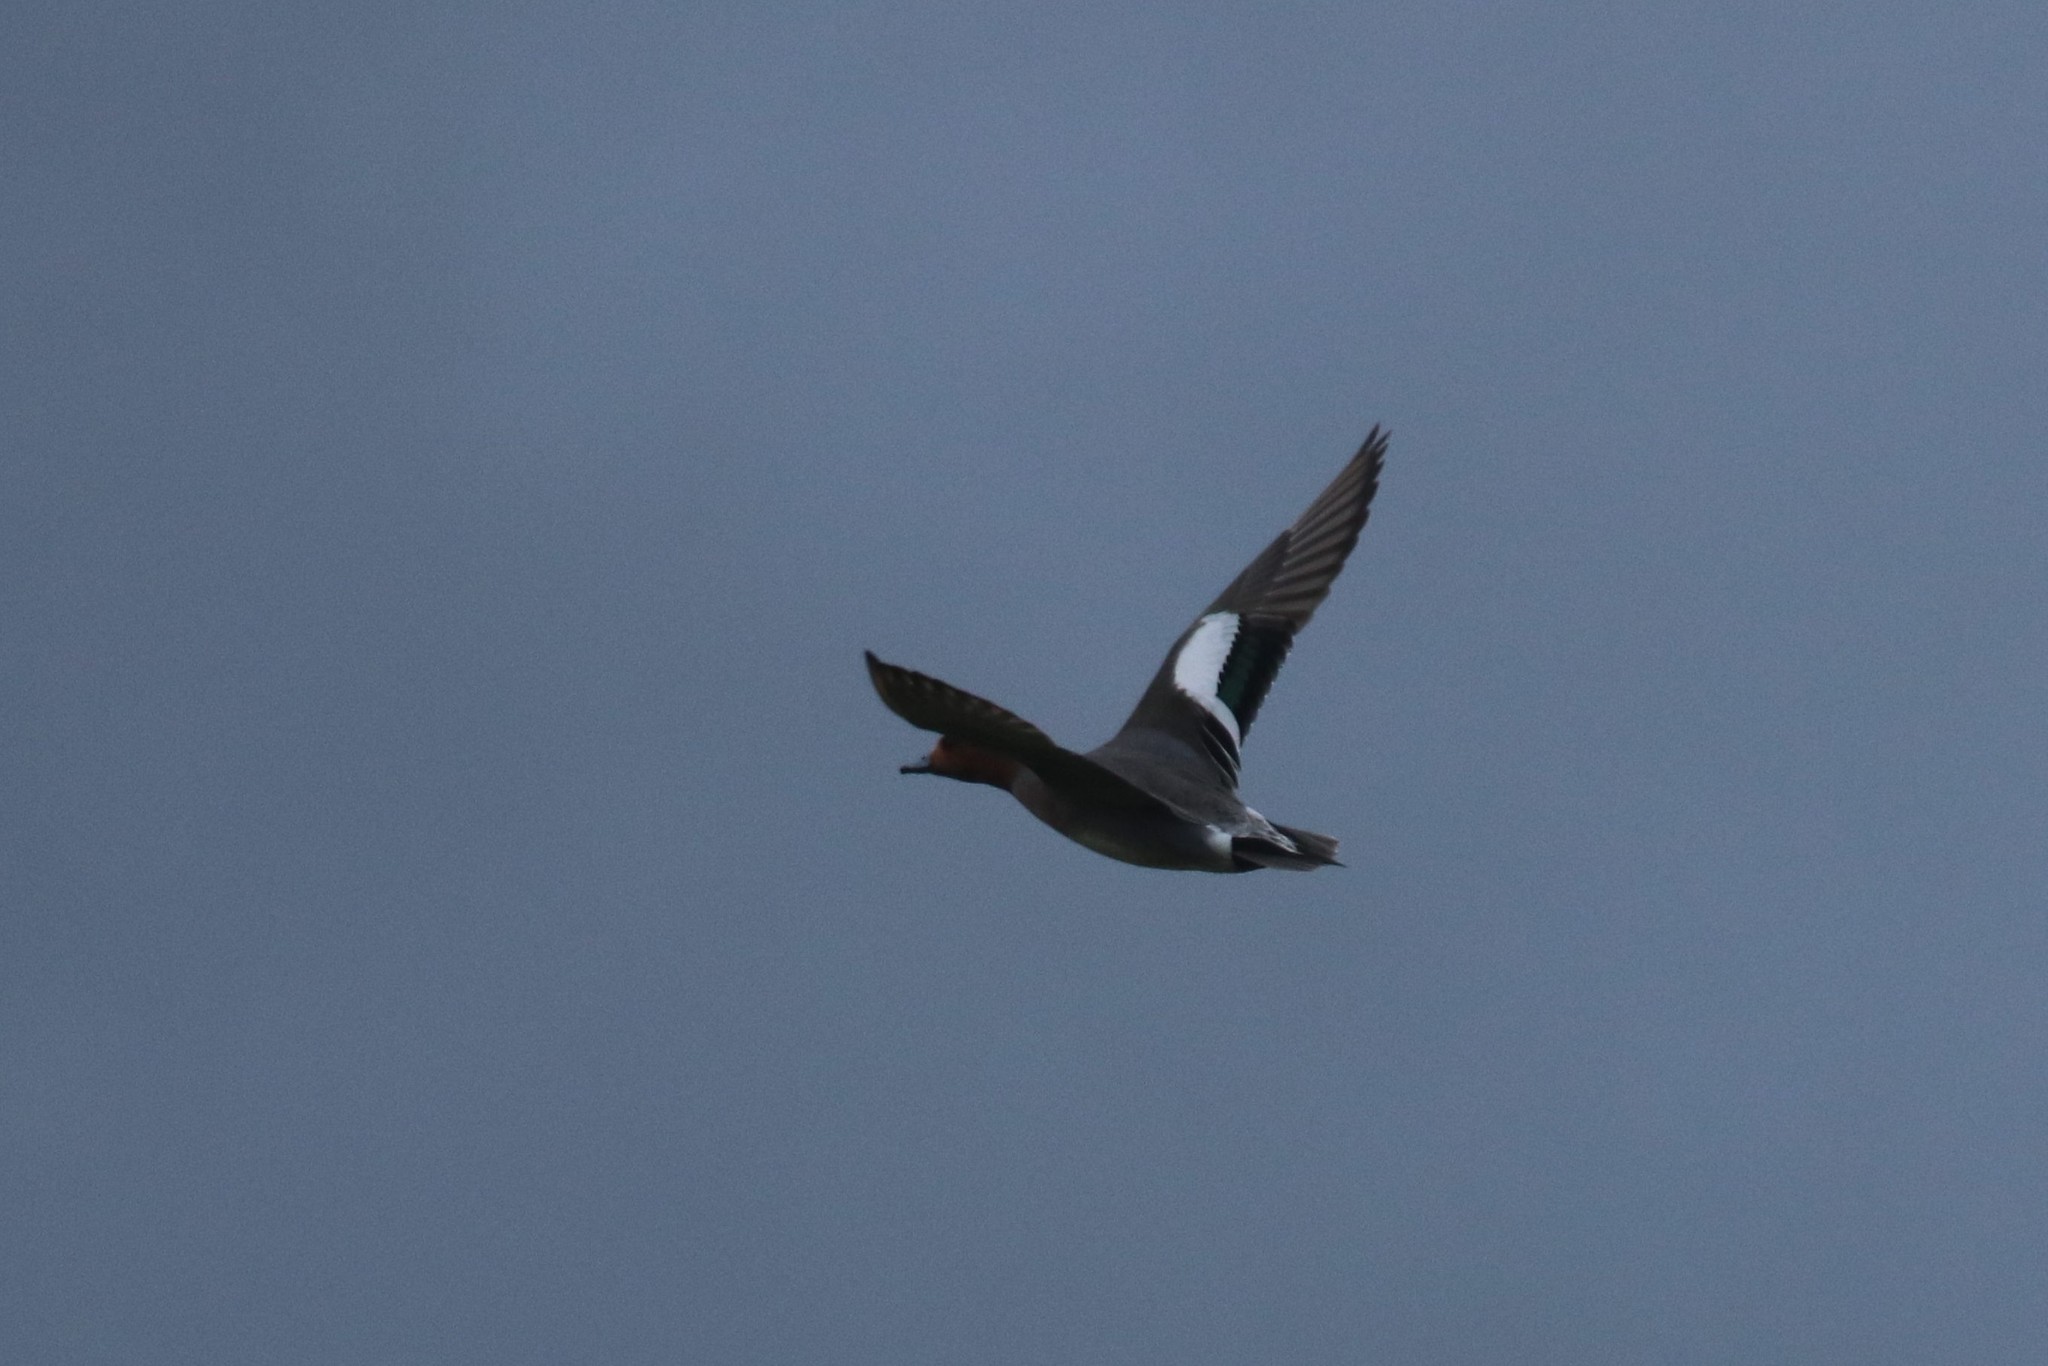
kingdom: Animalia
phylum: Chordata
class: Aves
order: Anseriformes
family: Anatidae
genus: Mareca
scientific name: Mareca penelope
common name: Eurasian wigeon
